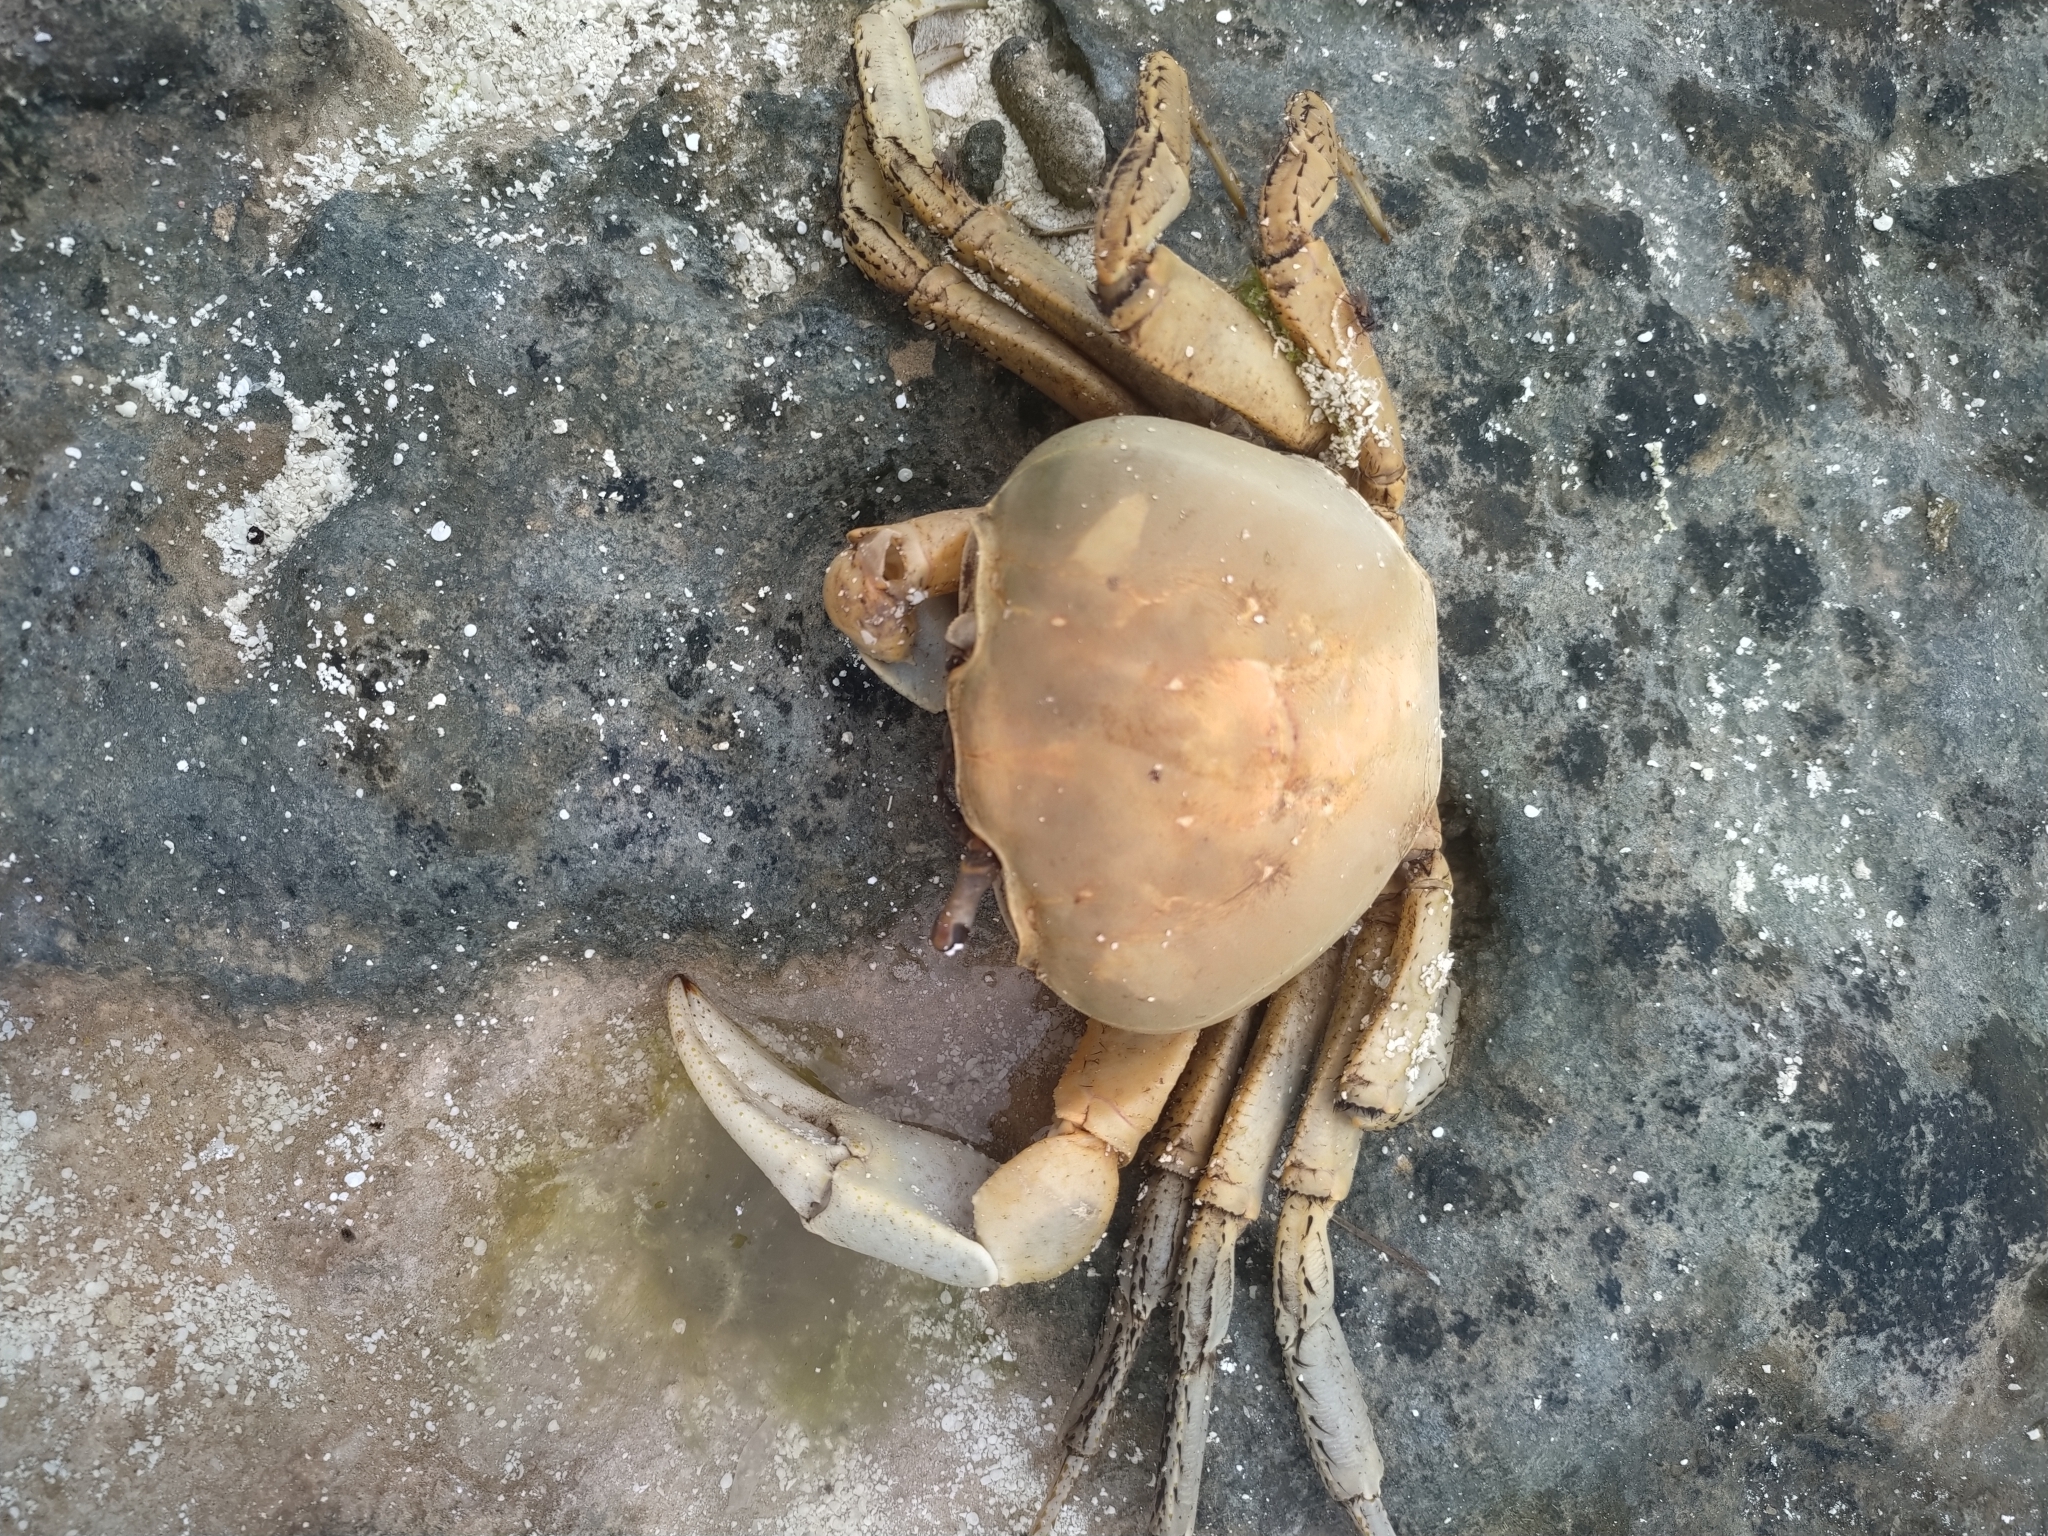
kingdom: Animalia
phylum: Arthropoda
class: Malacostraca
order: Decapoda
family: Gecarcinidae
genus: Cardisoma
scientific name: Cardisoma guanhumi
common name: Great land crab
